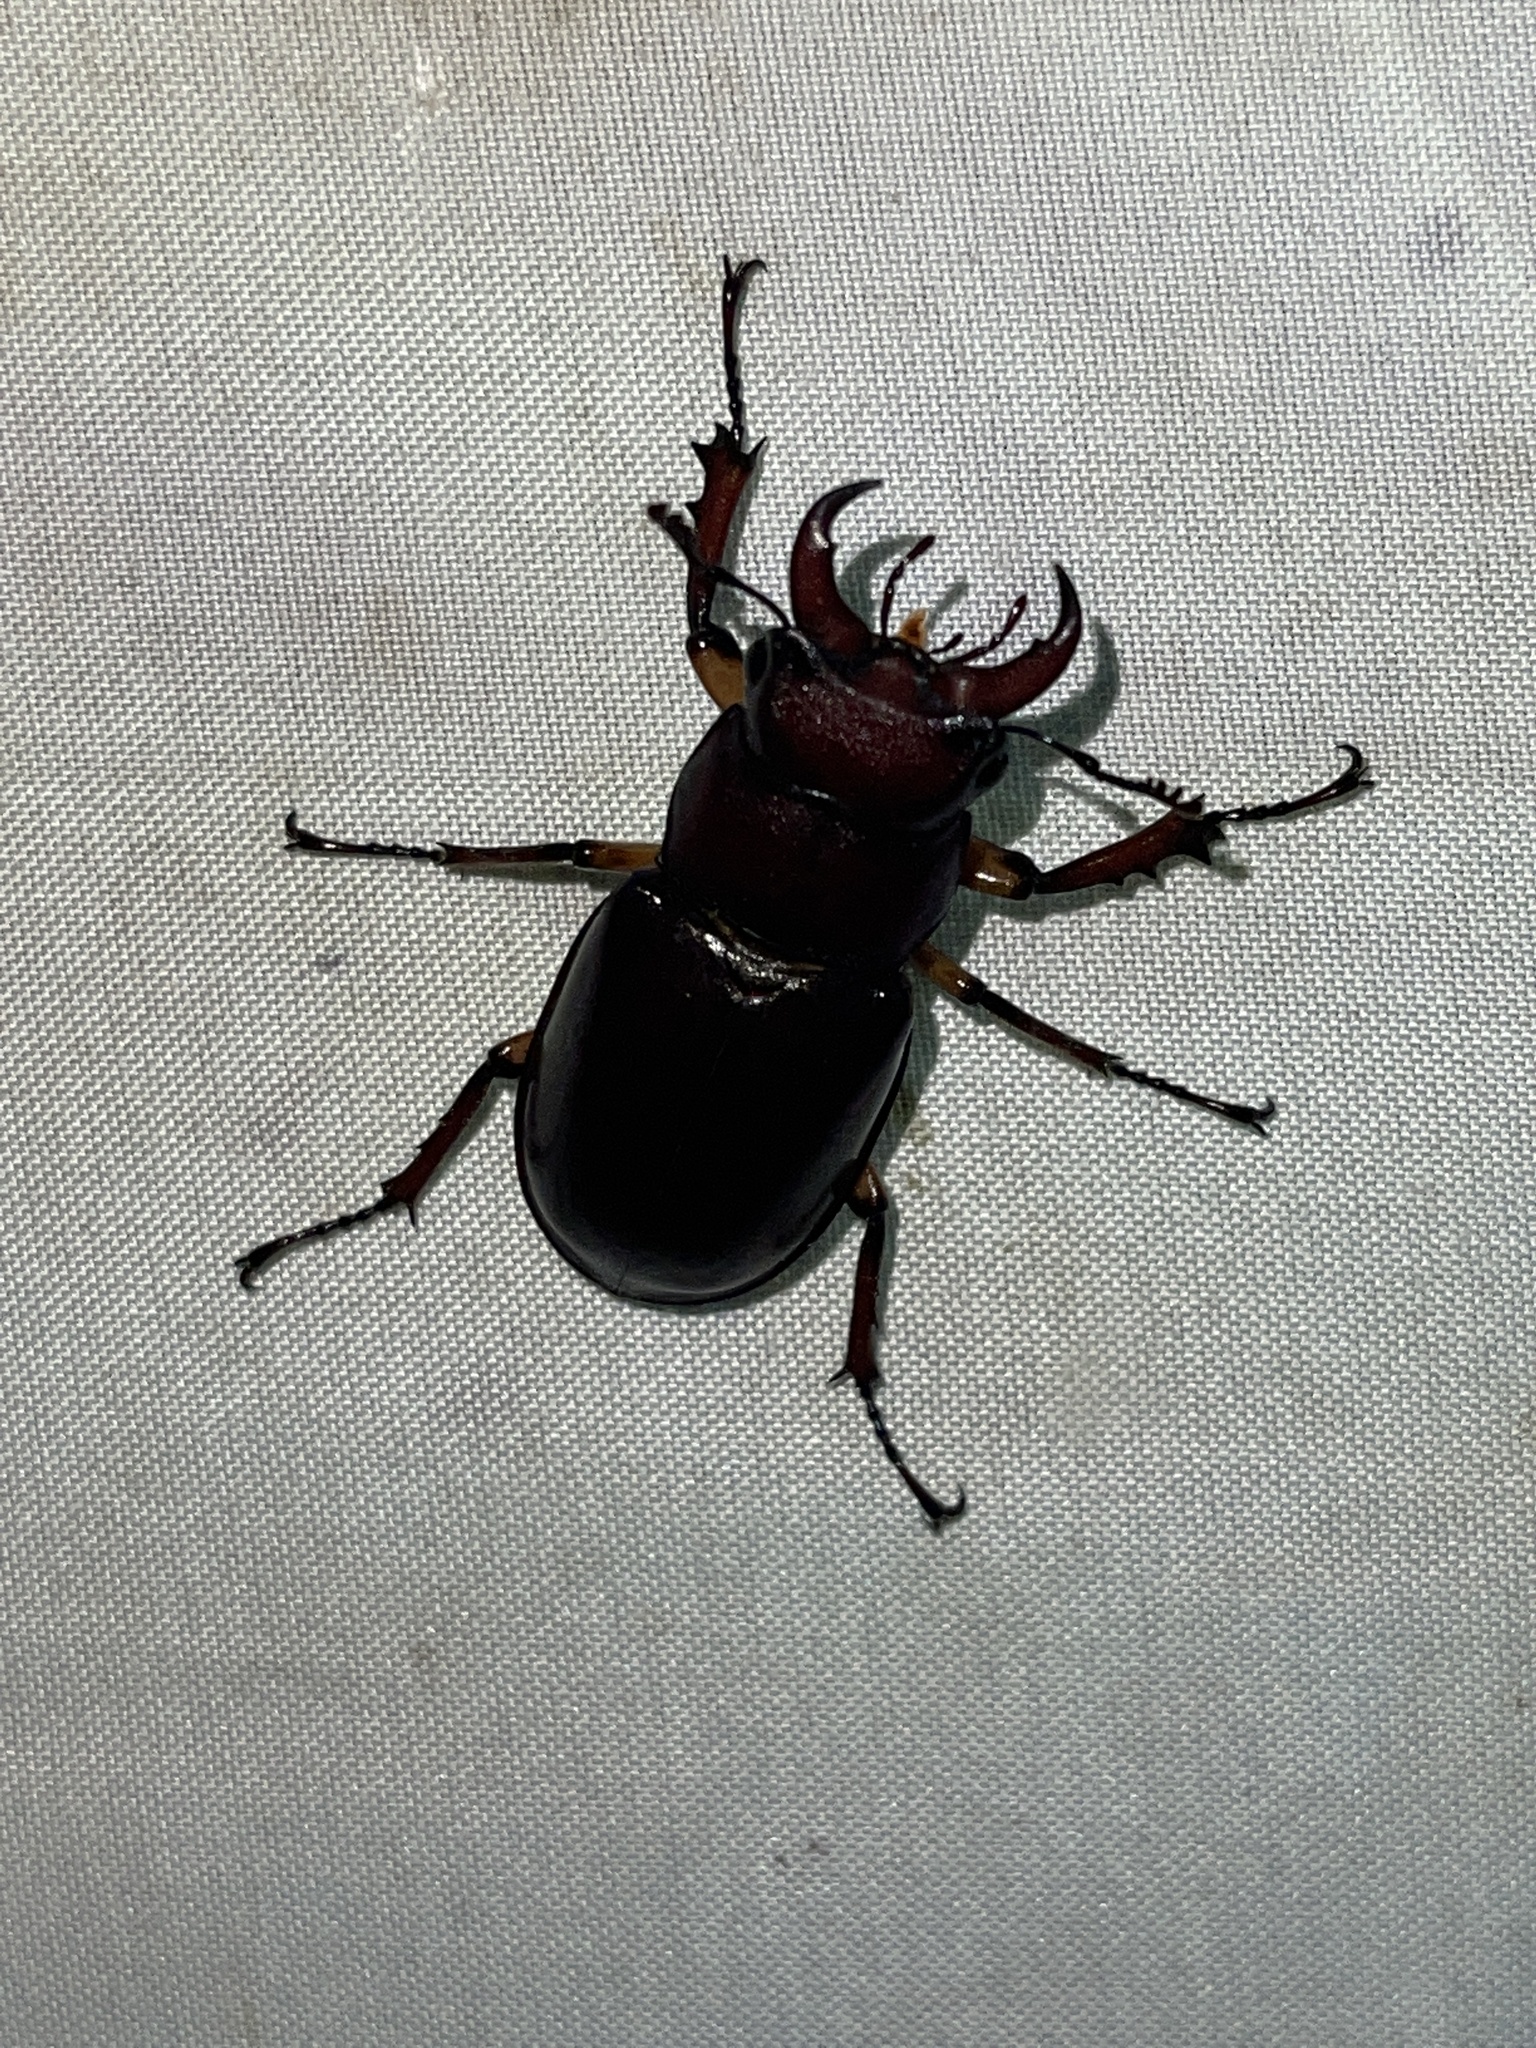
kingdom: Animalia
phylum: Arthropoda
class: Insecta
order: Coleoptera
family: Lucanidae
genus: Lucanus
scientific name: Lucanus capreolus
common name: Stag beetle
